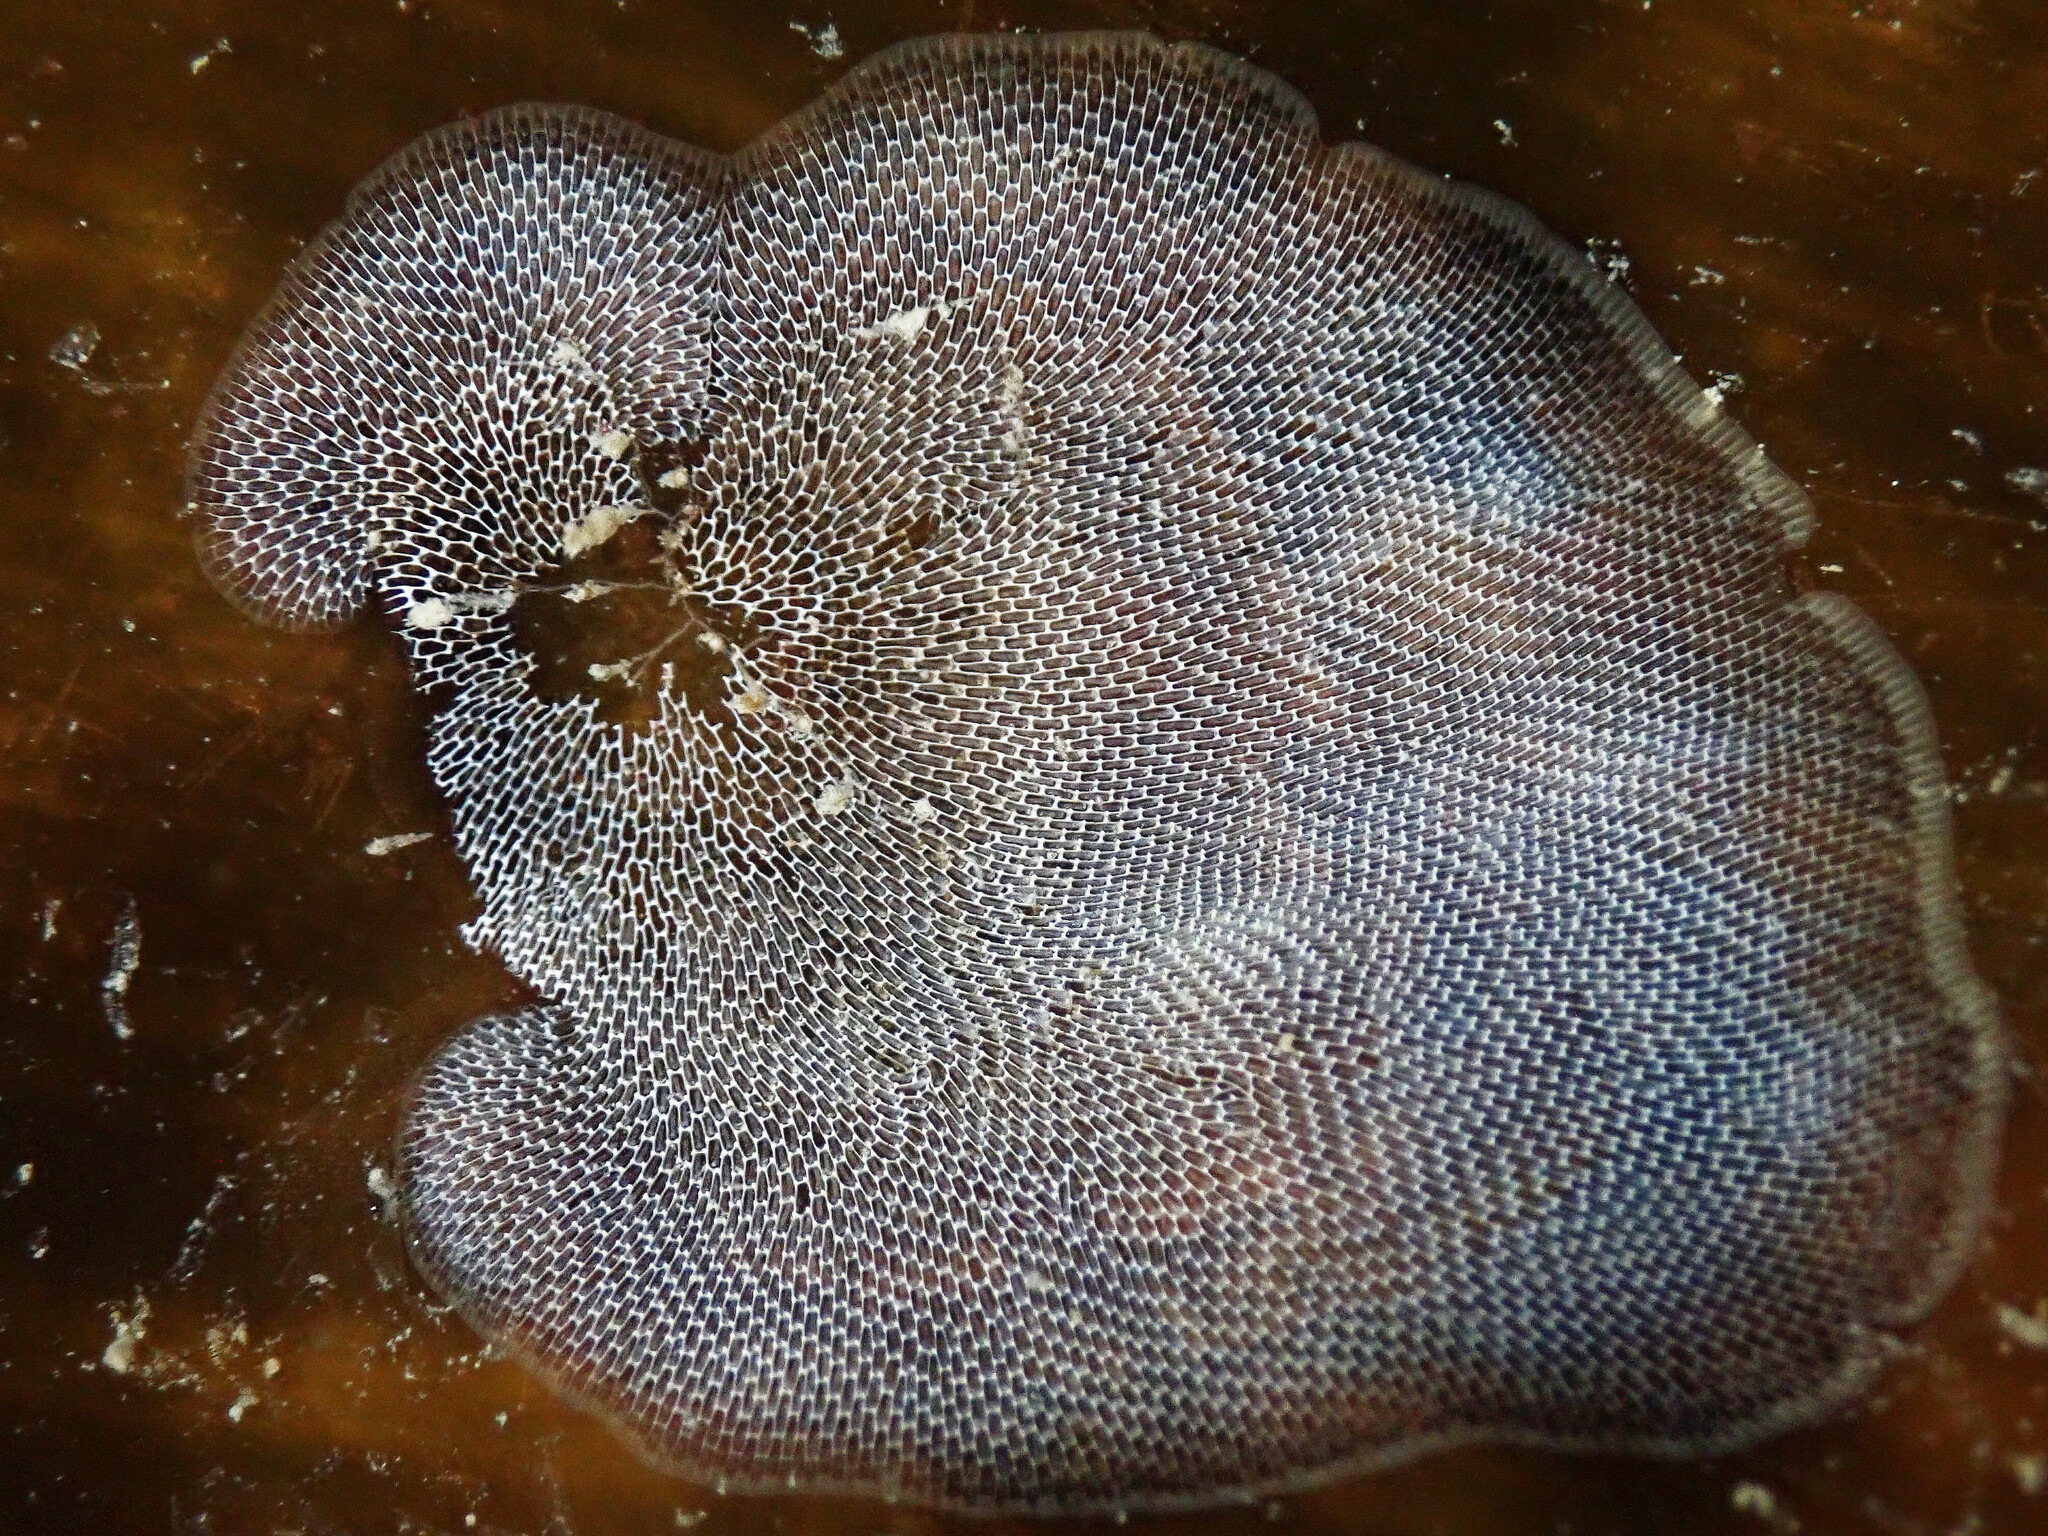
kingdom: Animalia
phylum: Bryozoa
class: Gymnolaemata
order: Cheilostomatida
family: Membraniporidae
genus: Membranipora
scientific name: Membranipora membranacea
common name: Sea mat
